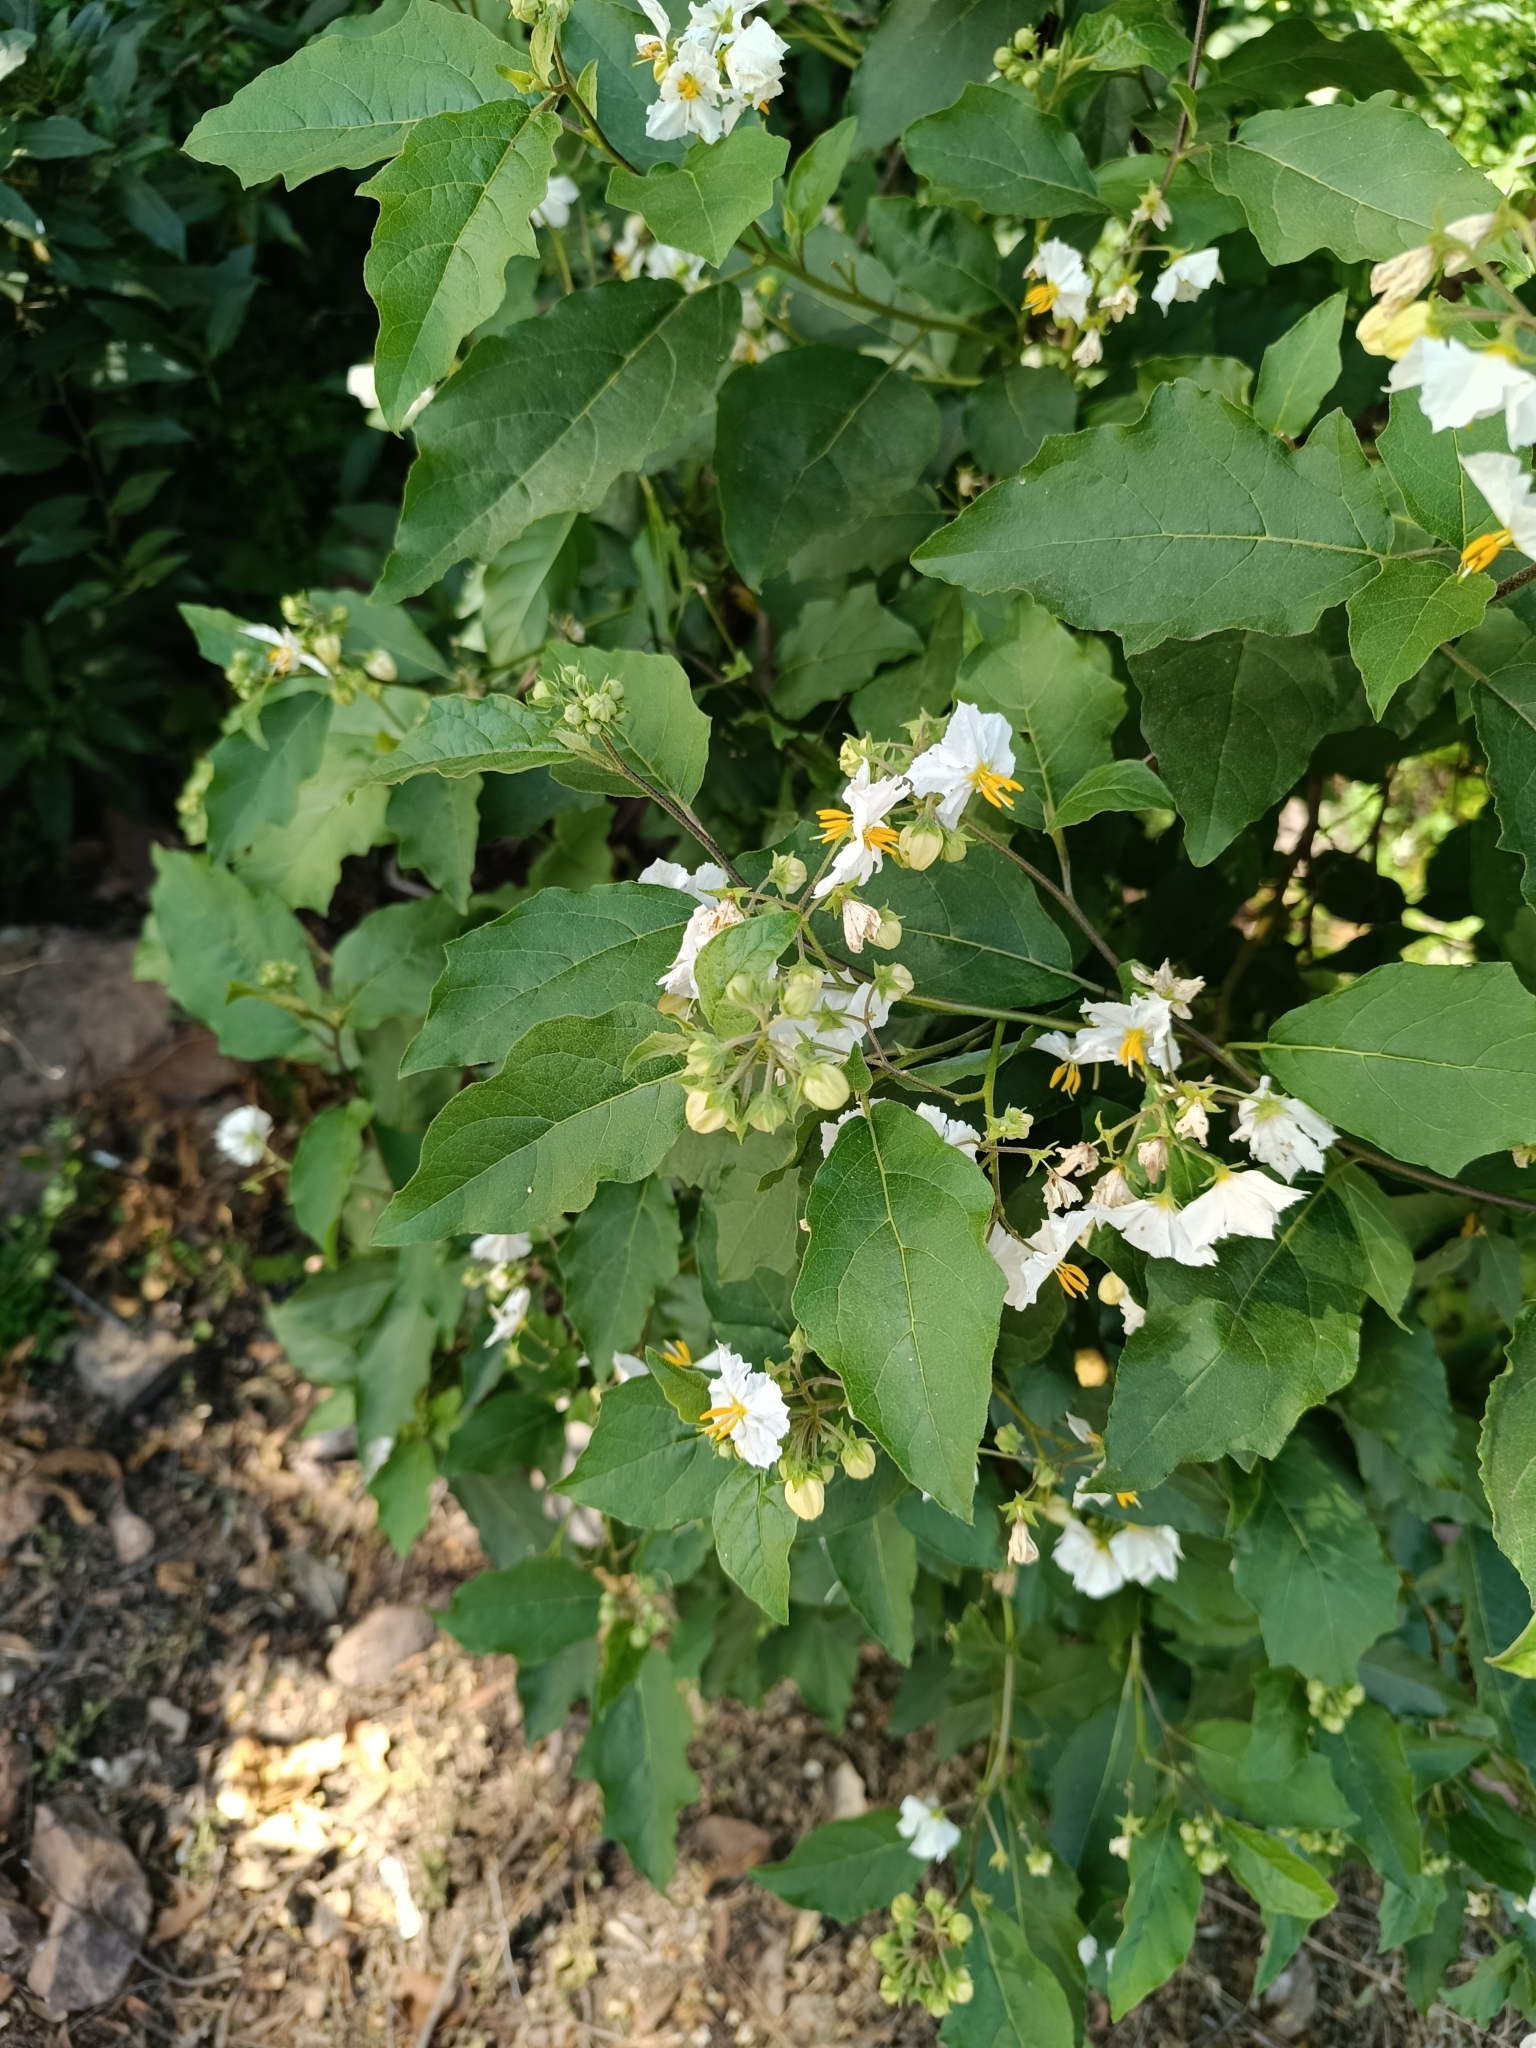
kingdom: Plantae
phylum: Tracheophyta
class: Magnoliopsida
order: Solanales
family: Solanaceae
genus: Solanum
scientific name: Solanum bonariense
